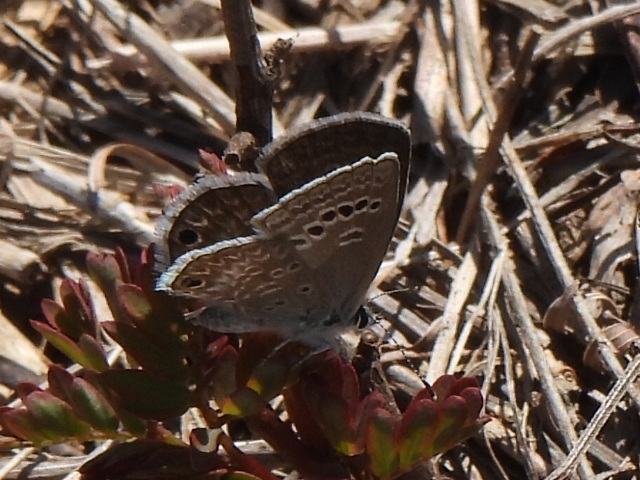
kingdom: Animalia
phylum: Arthropoda
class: Insecta
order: Lepidoptera
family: Lycaenidae
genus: Echinargus
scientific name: Echinargus isola
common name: Reakirt's blue
